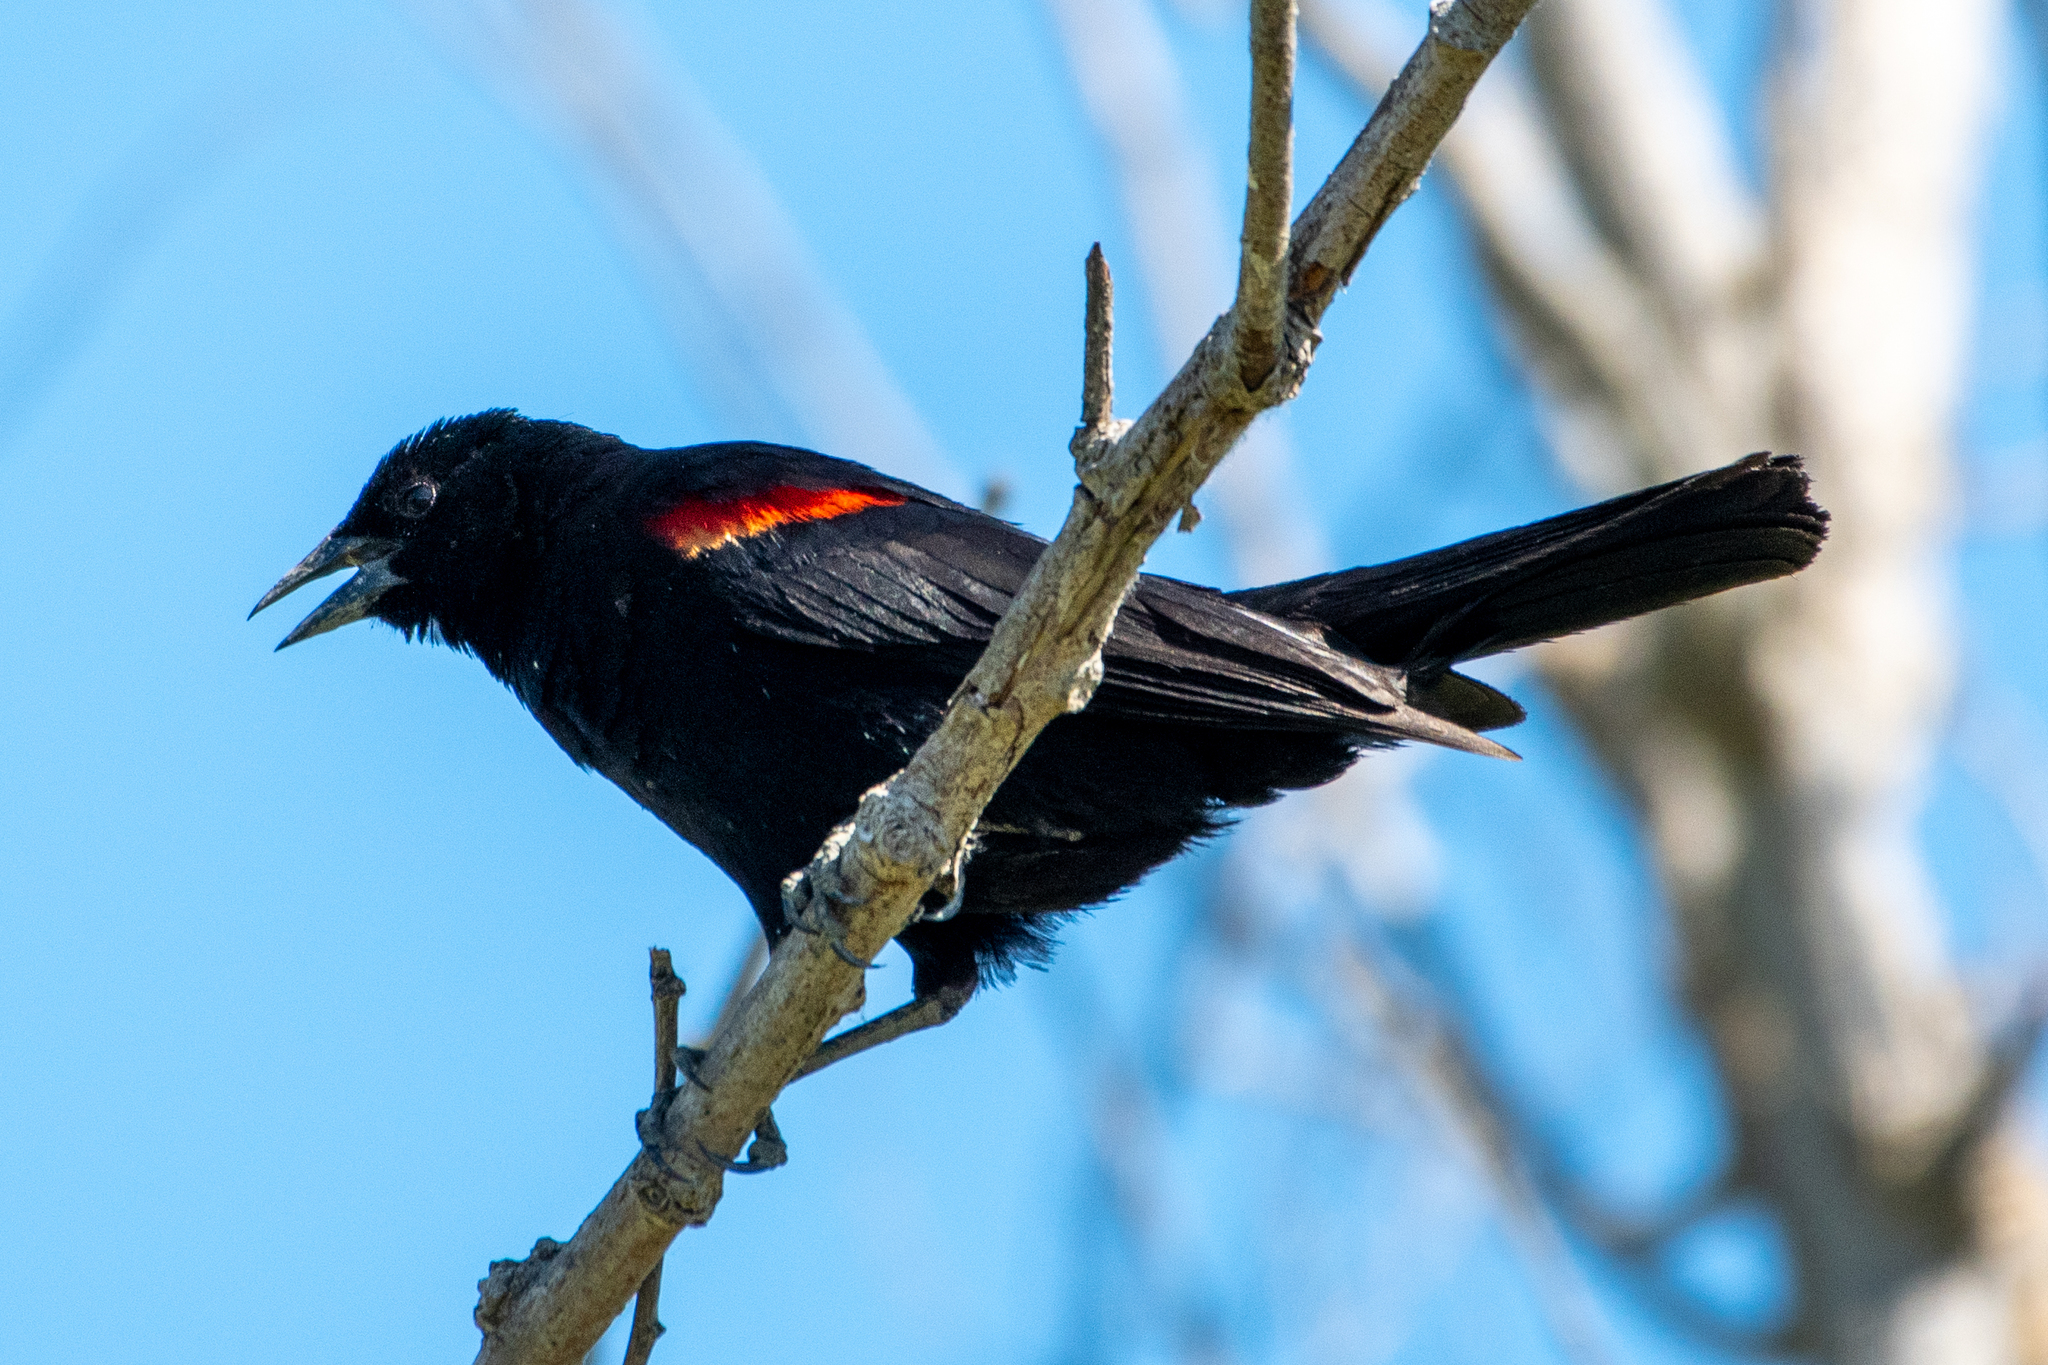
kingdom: Animalia
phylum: Chordata
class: Aves
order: Passeriformes
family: Icteridae
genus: Agelaius
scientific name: Agelaius phoeniceus
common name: Red-winged blackbird
